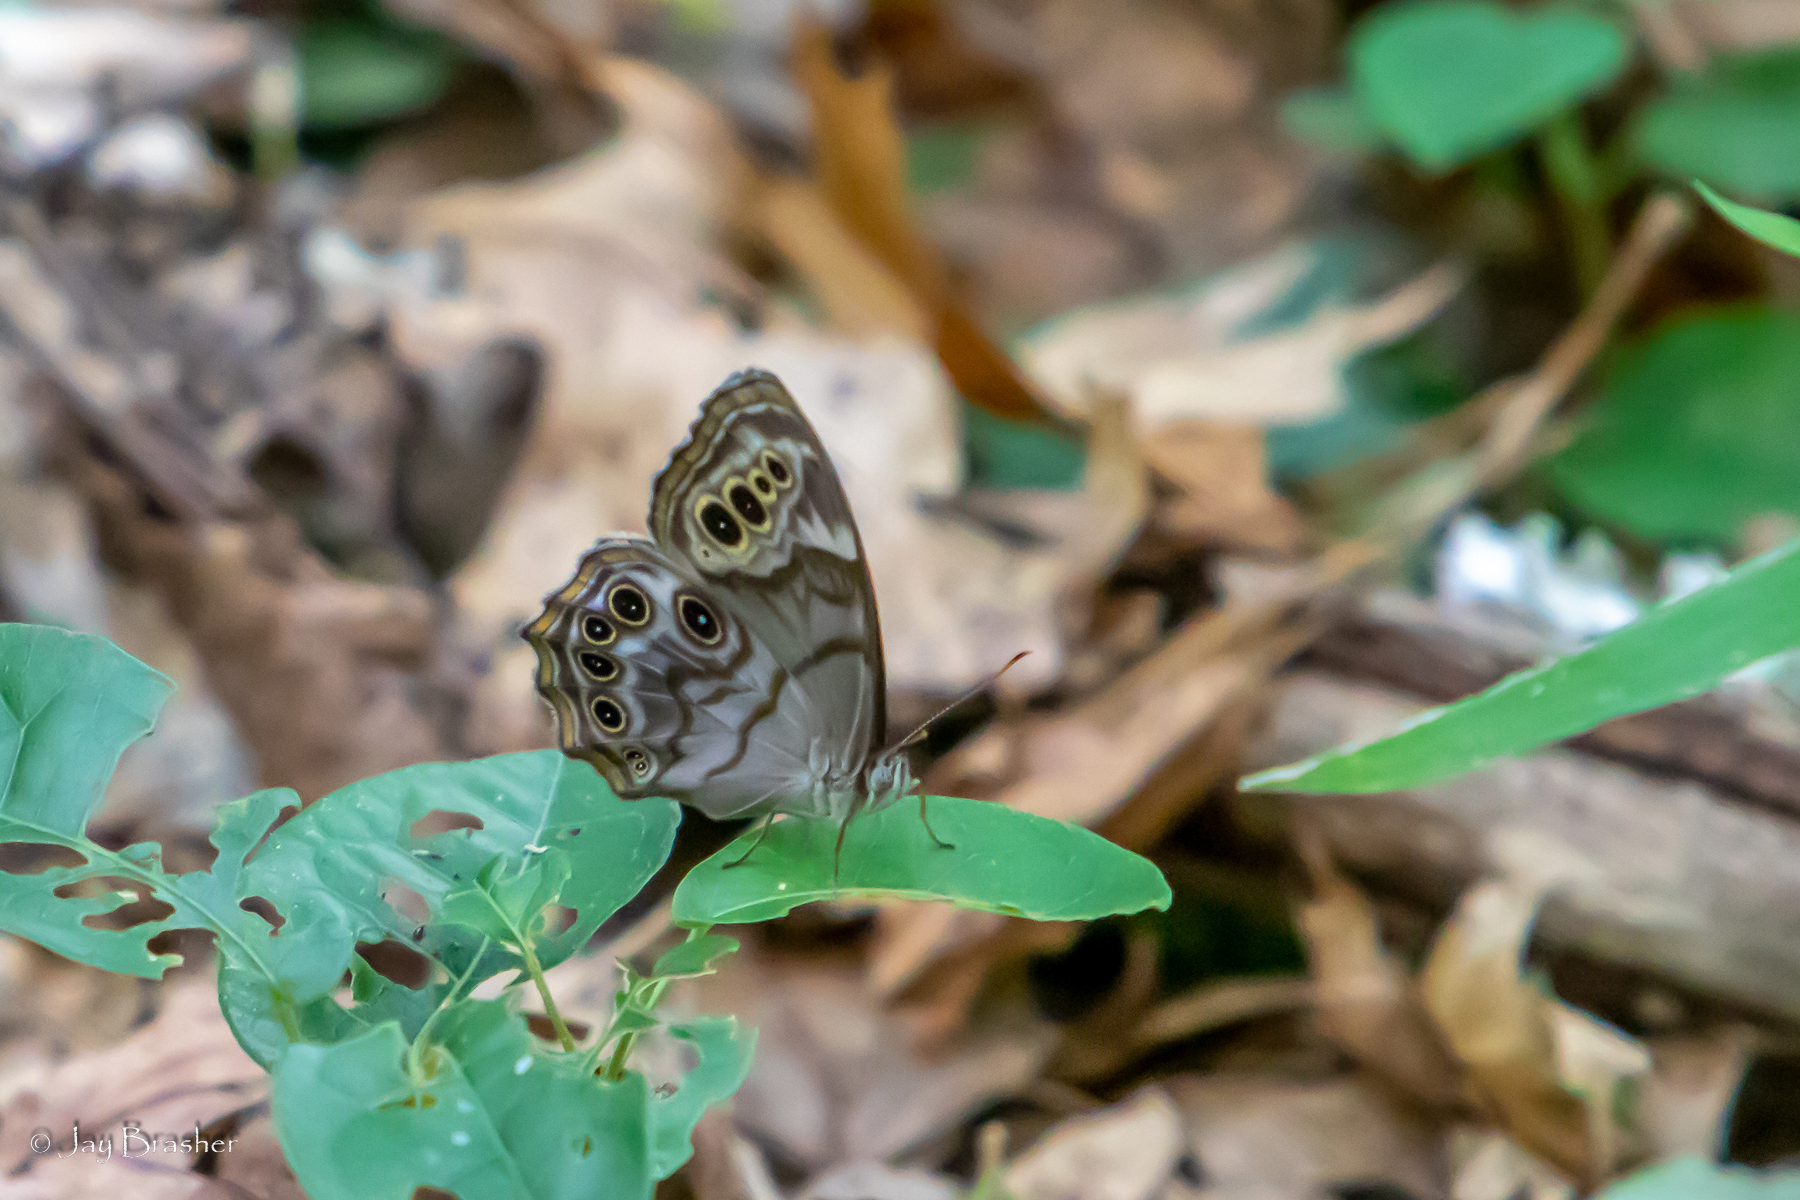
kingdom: Animalia
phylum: Arthropoda
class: Insecta
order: Lepidoptera
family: Nymphalidae
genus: Lethe
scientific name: Lethe anthedon
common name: Northern pearly-eye
